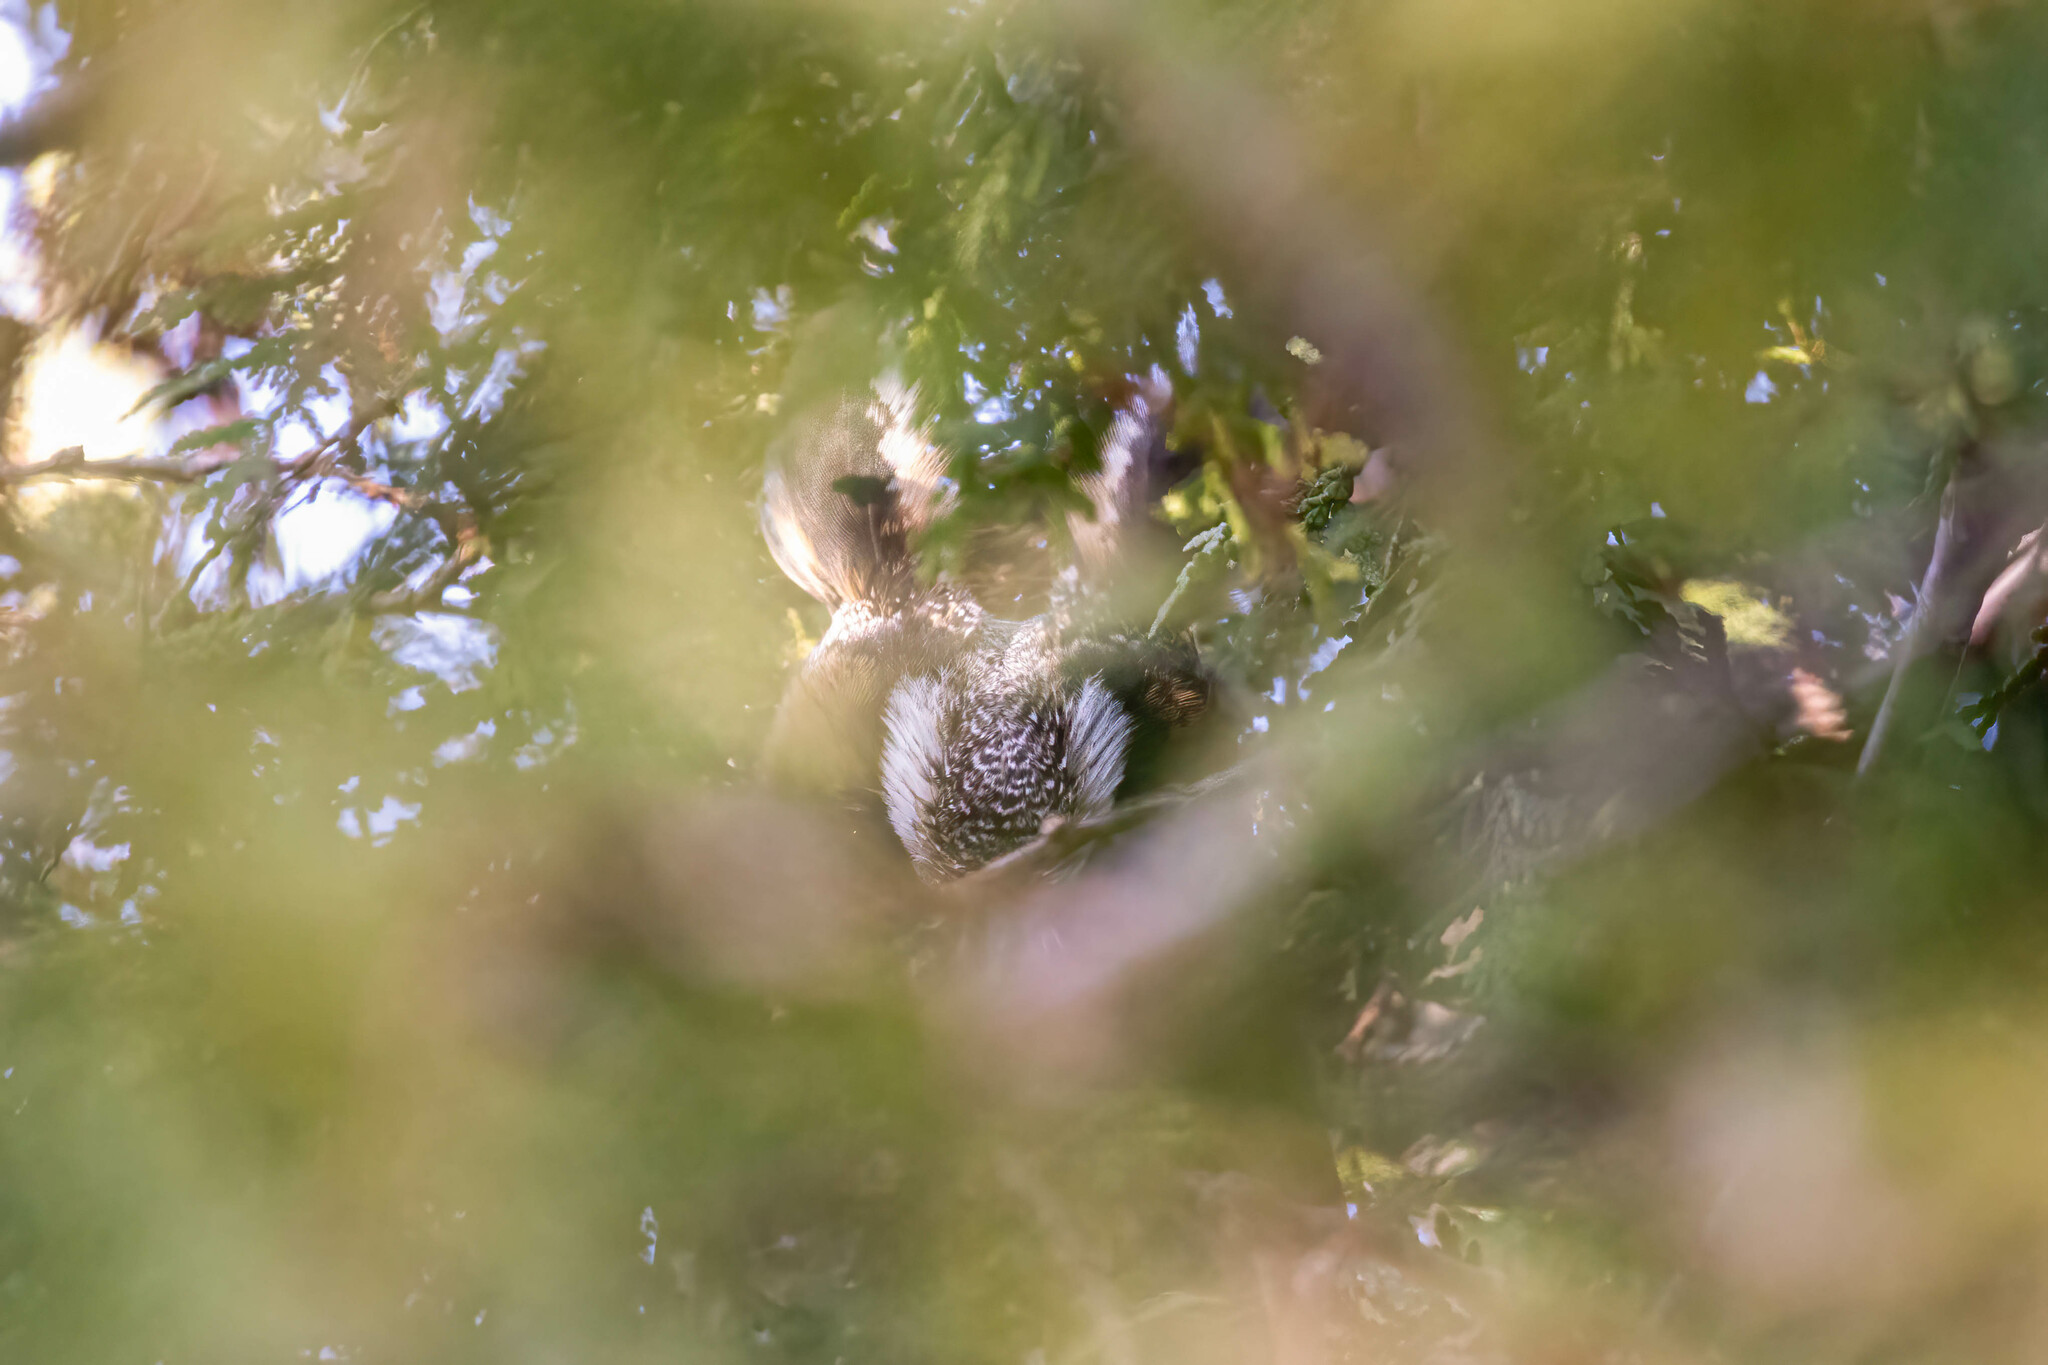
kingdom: Animalia
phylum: Chordata
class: Aves
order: Strigiformes
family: Strigidae
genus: Asio
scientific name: Asio otus
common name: Long-eared owl
